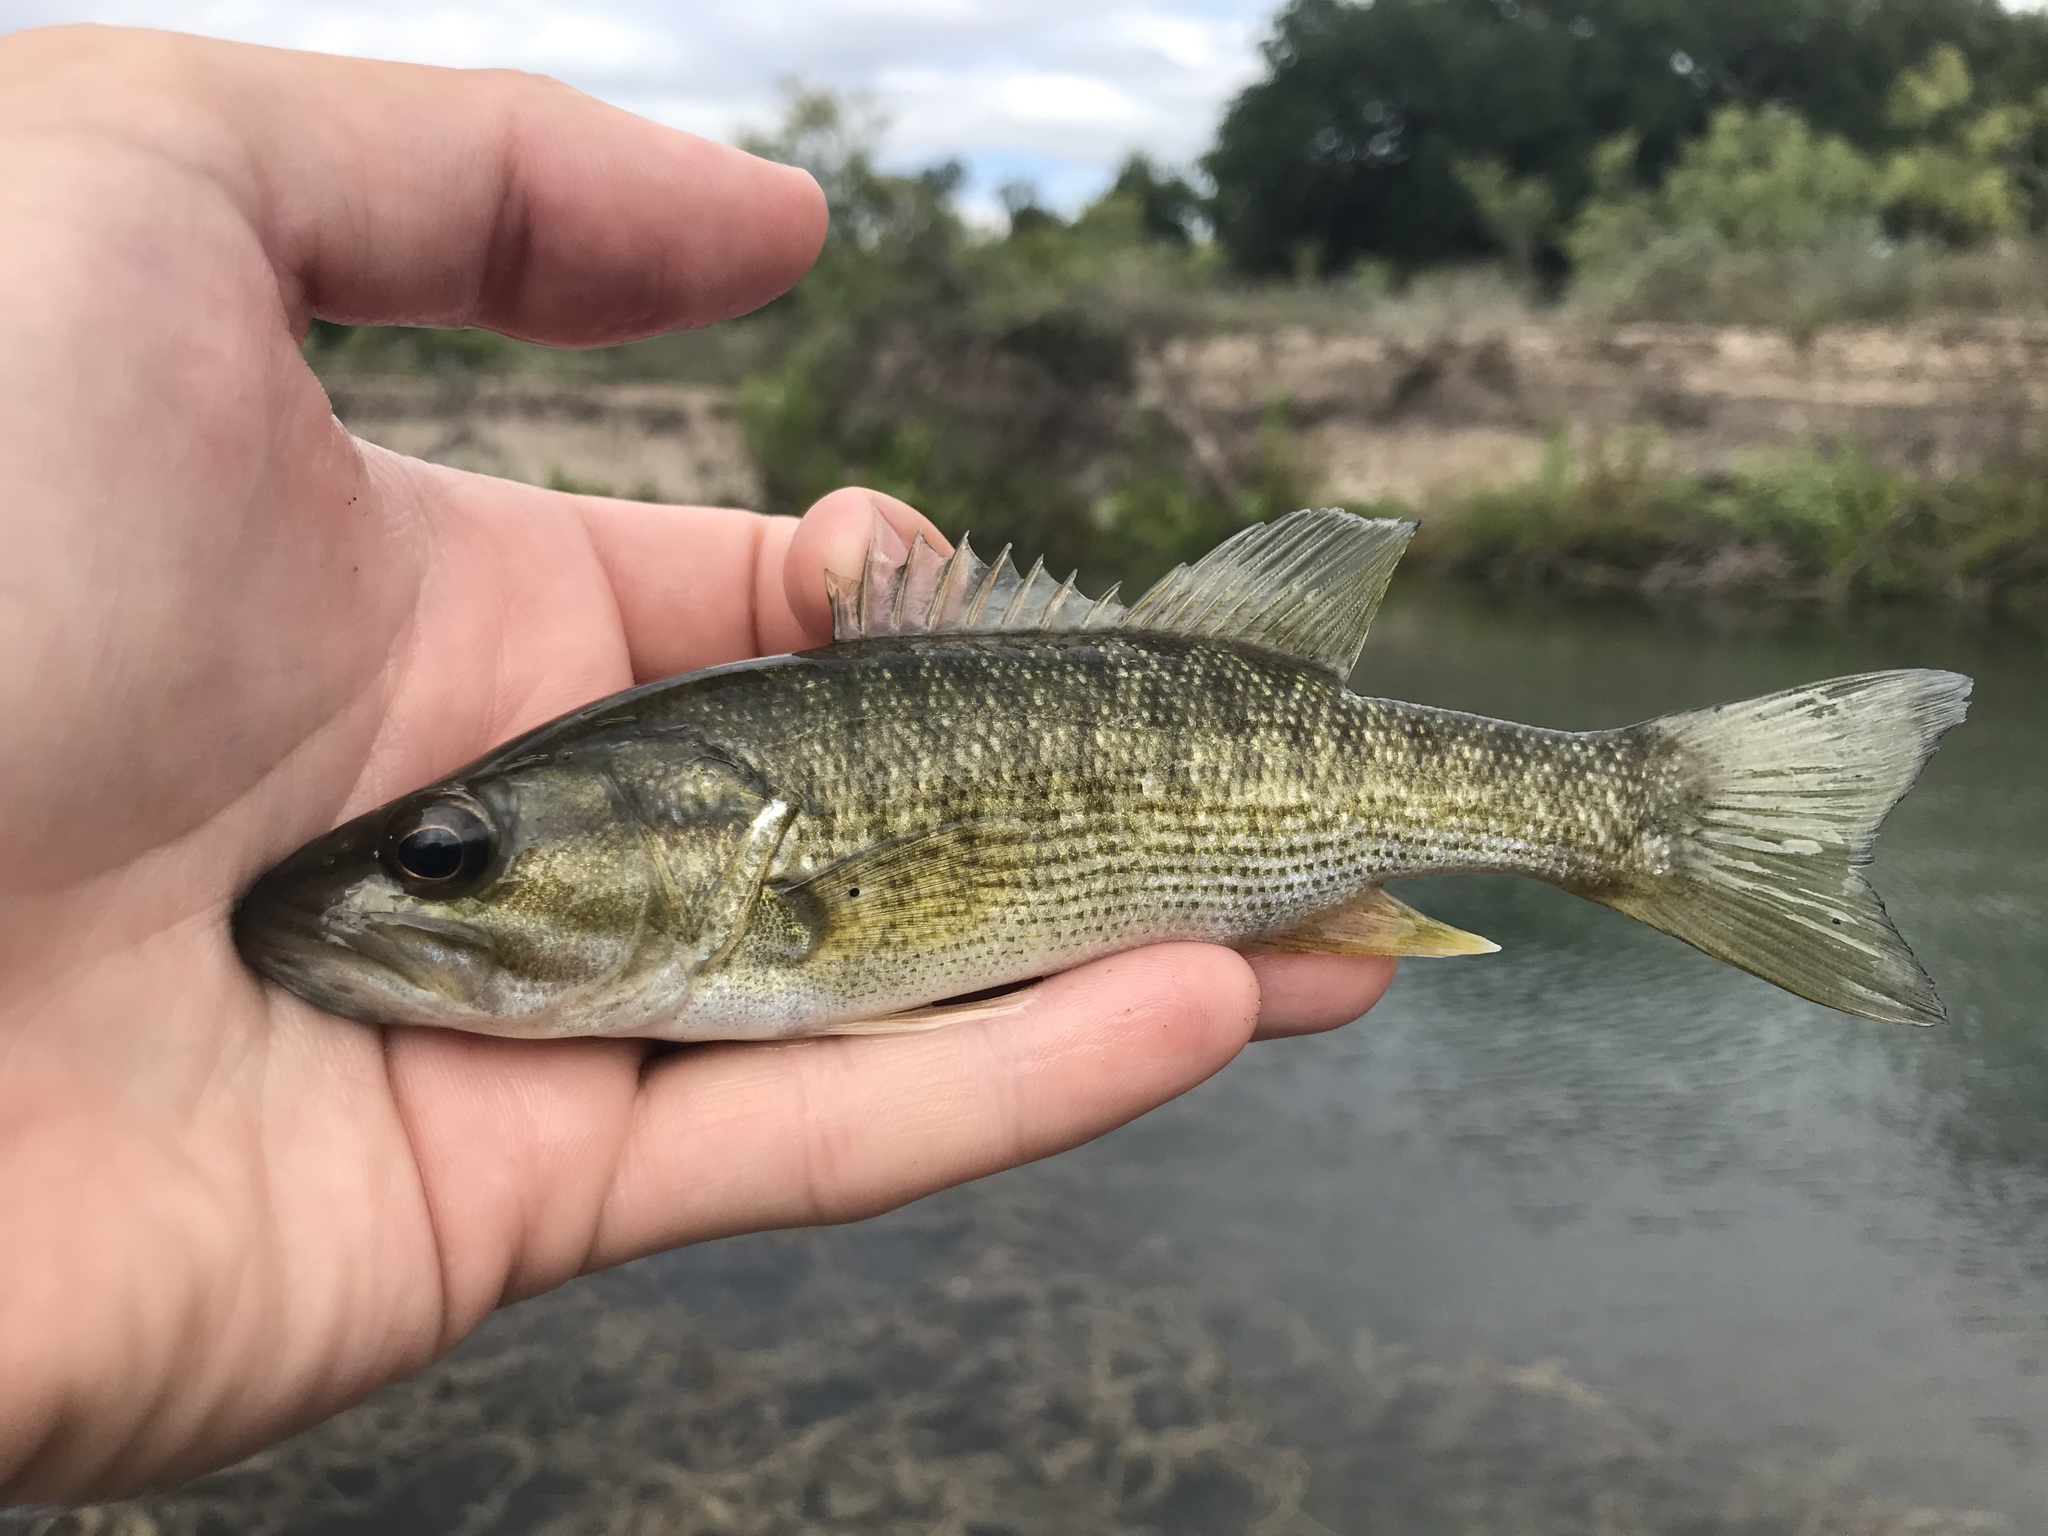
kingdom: Animalia
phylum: Chordata
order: Perciformes
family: Centrarchidae
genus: Micropterus
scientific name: Micropterus treculii
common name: Guadalupe bass
